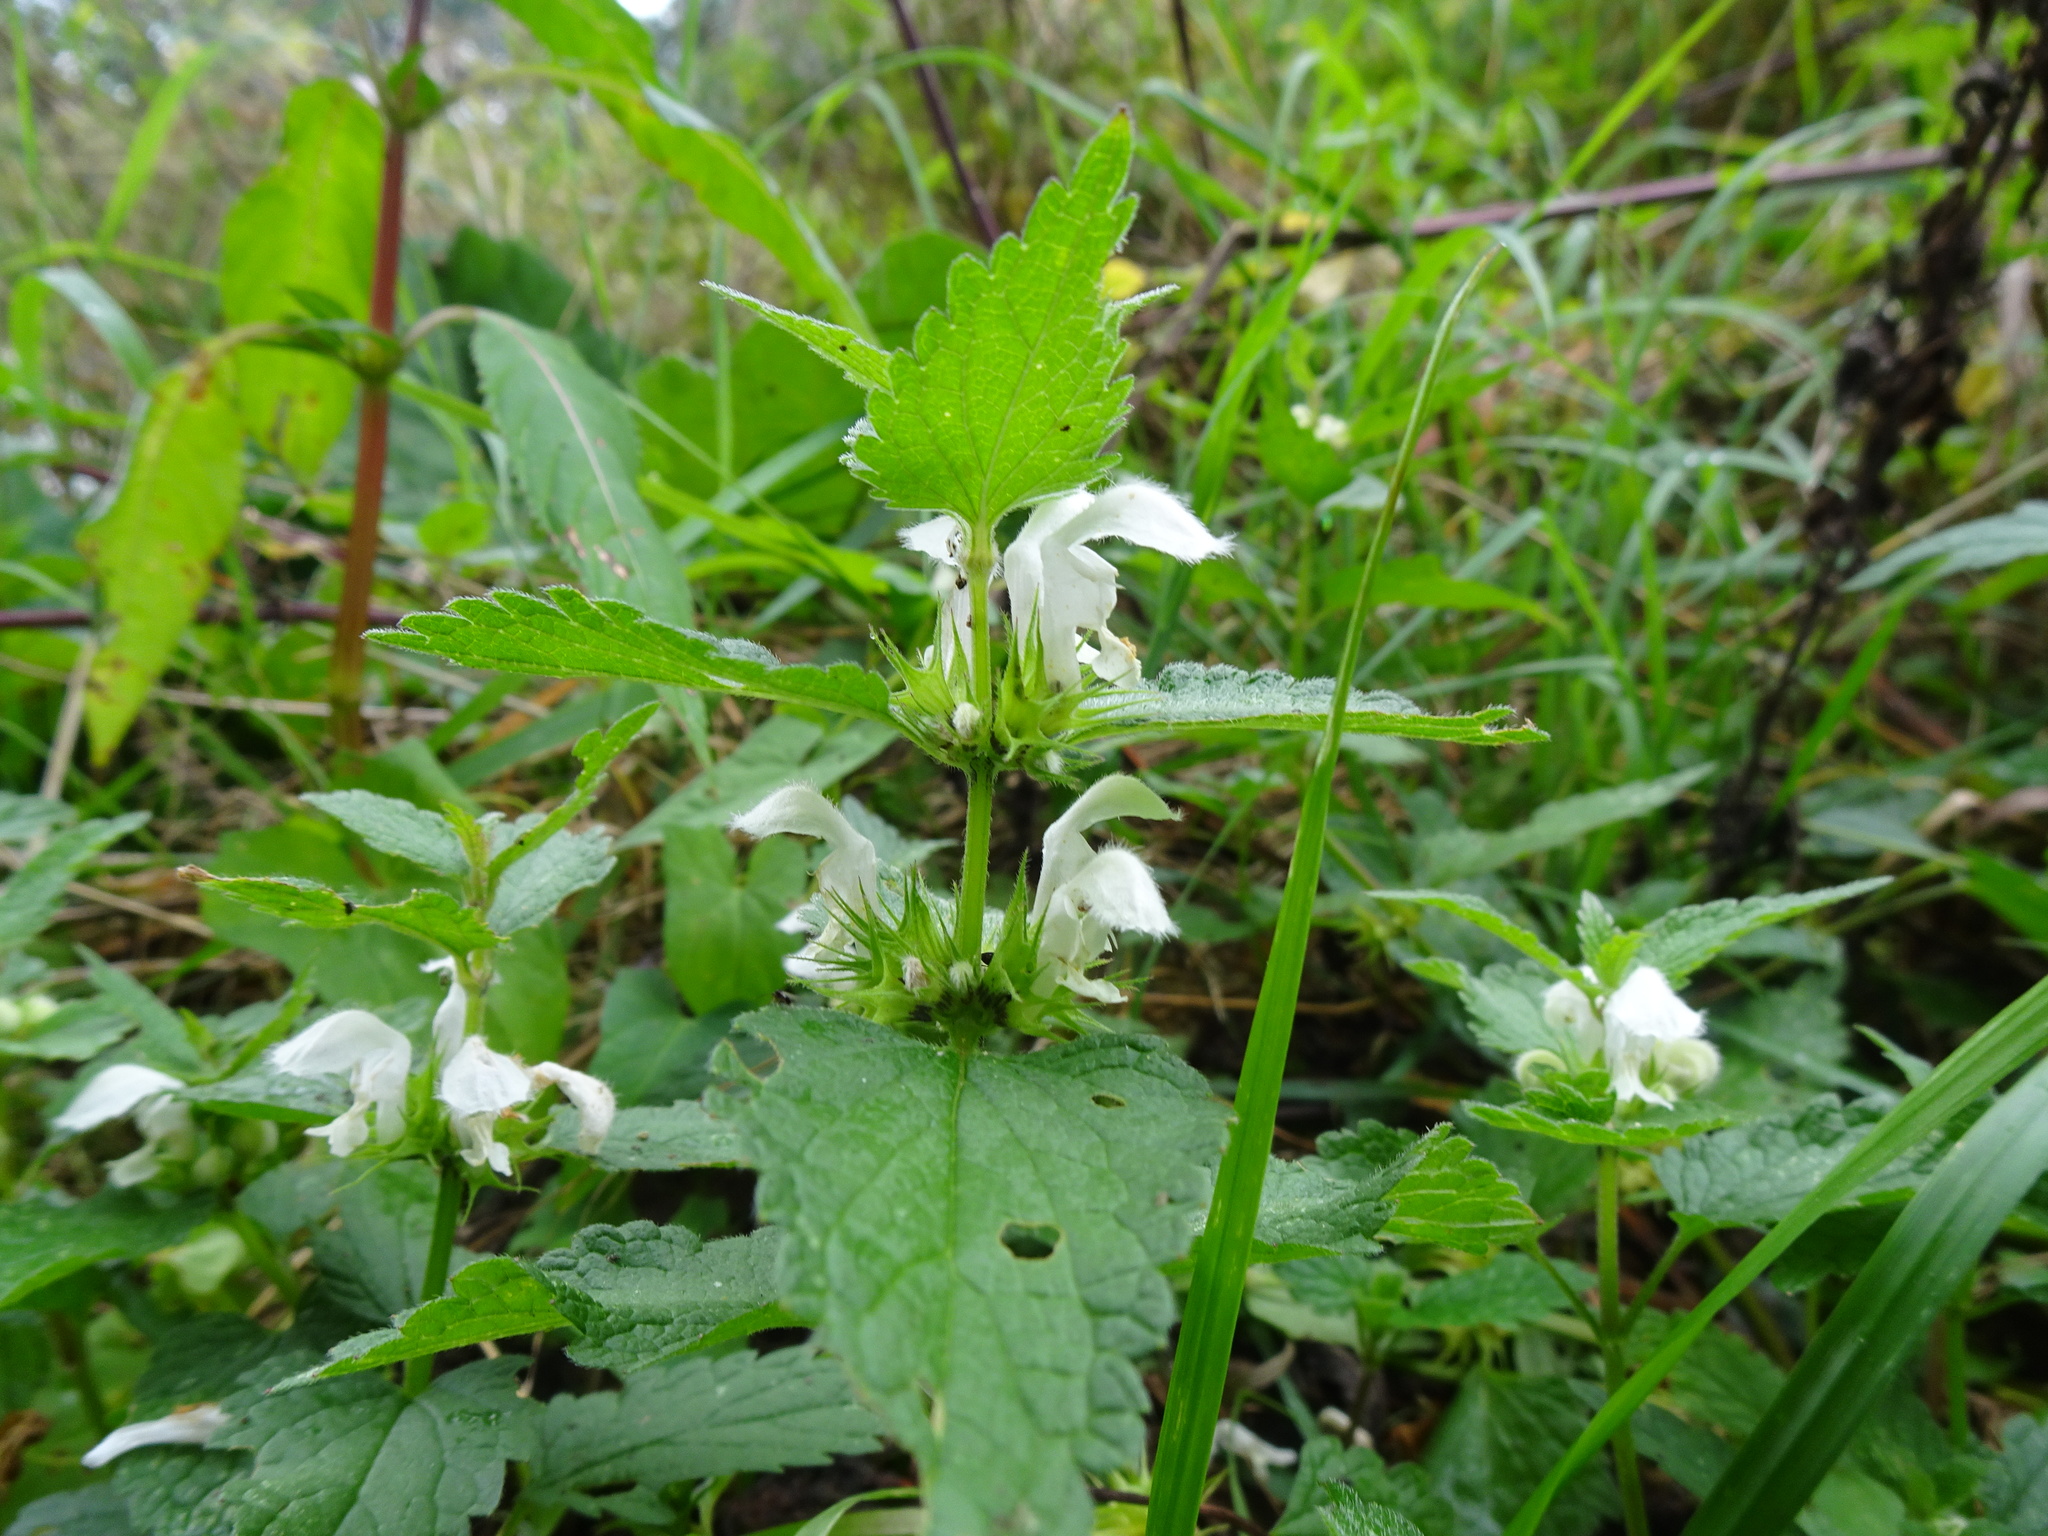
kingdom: Plantae
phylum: Tracheophyta
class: Magnoliopsida
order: Lamiales
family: Lamiaceae
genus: Lamium
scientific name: Lamium album
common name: White dead-nettle
